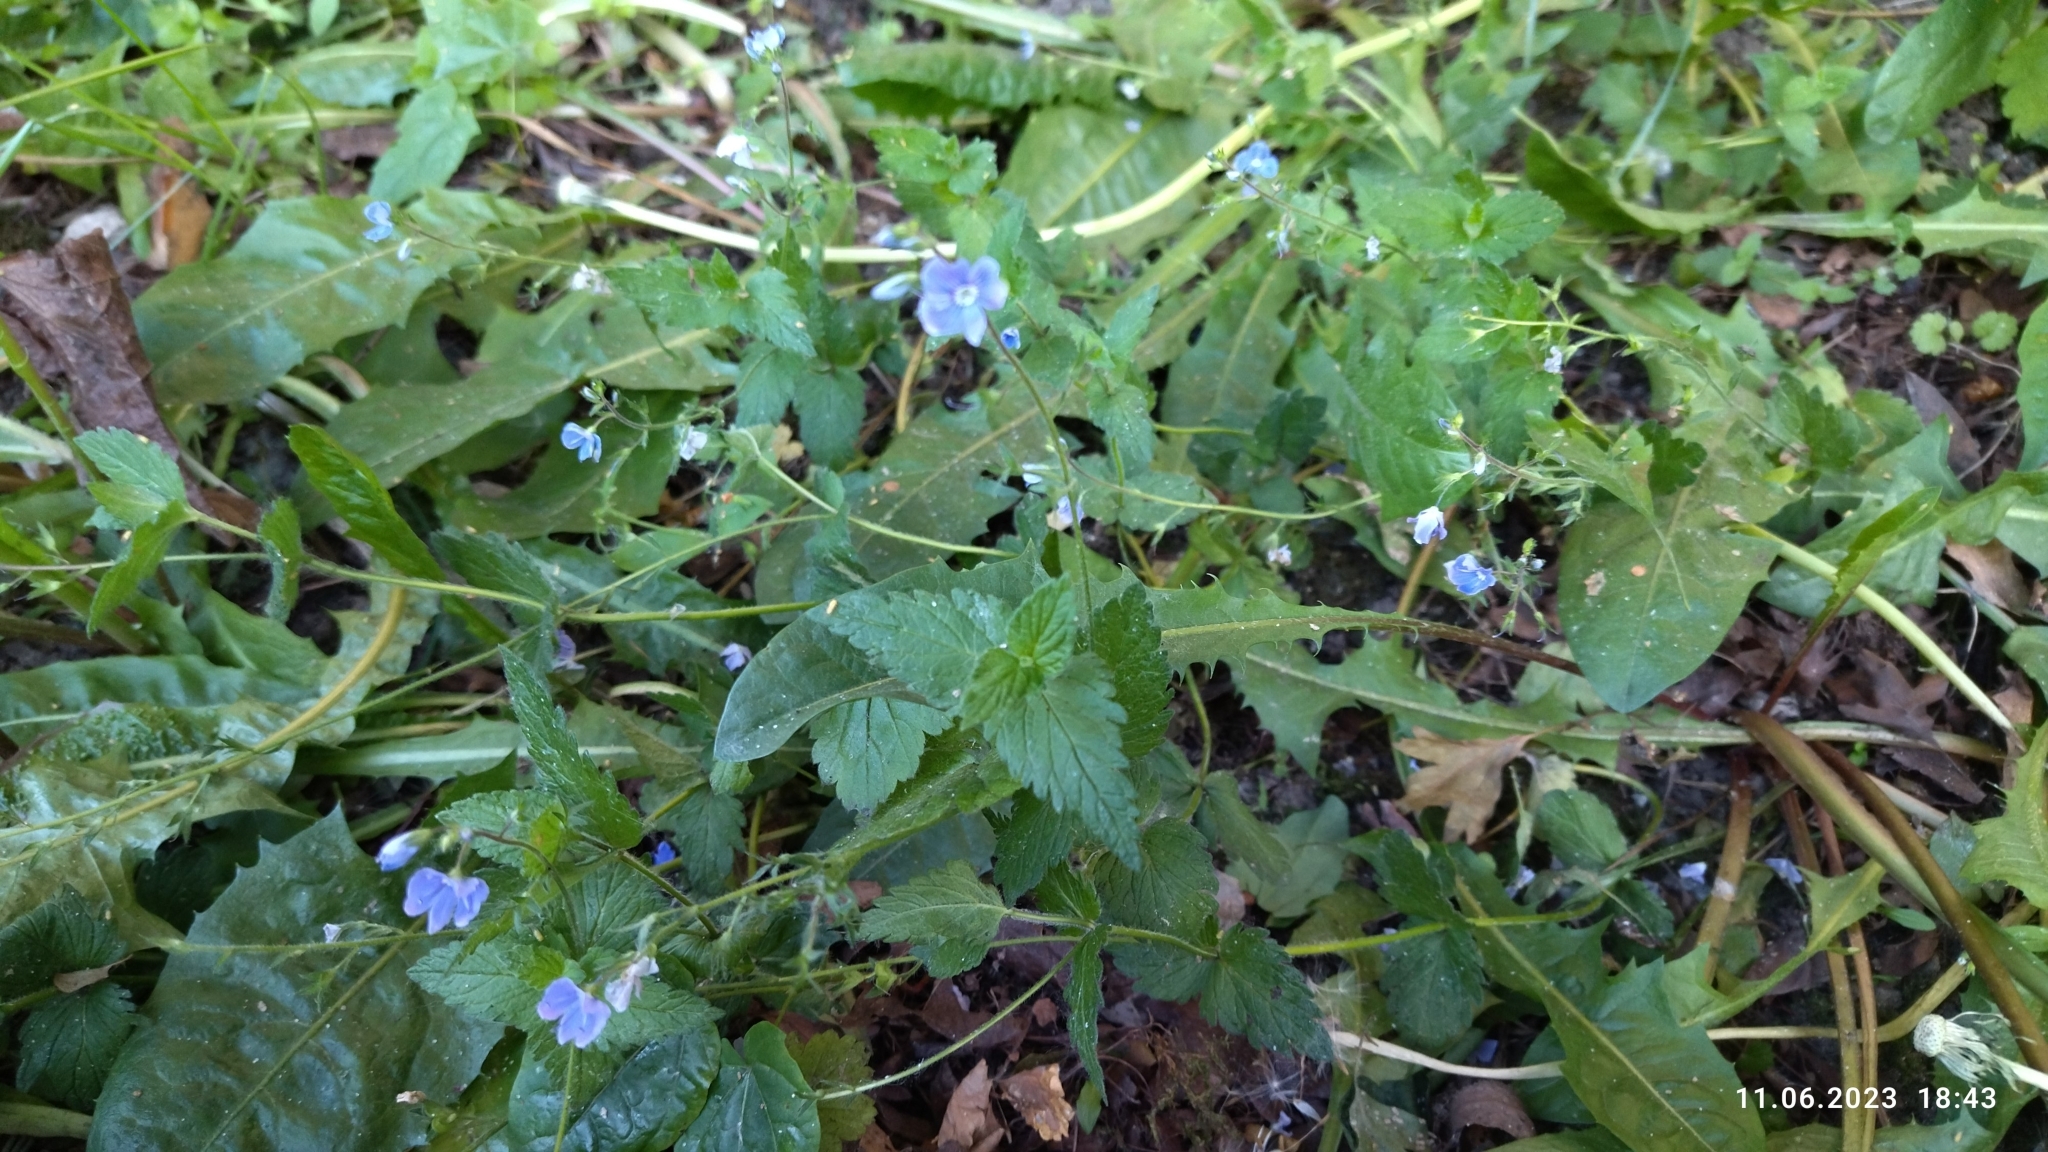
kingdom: Plantae
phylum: Tracheophyta
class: Magnoliopsida
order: Lamiales
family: Plantaginaceae
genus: Veronica
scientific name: Veronica chamaedrys
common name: Germander speedwell
